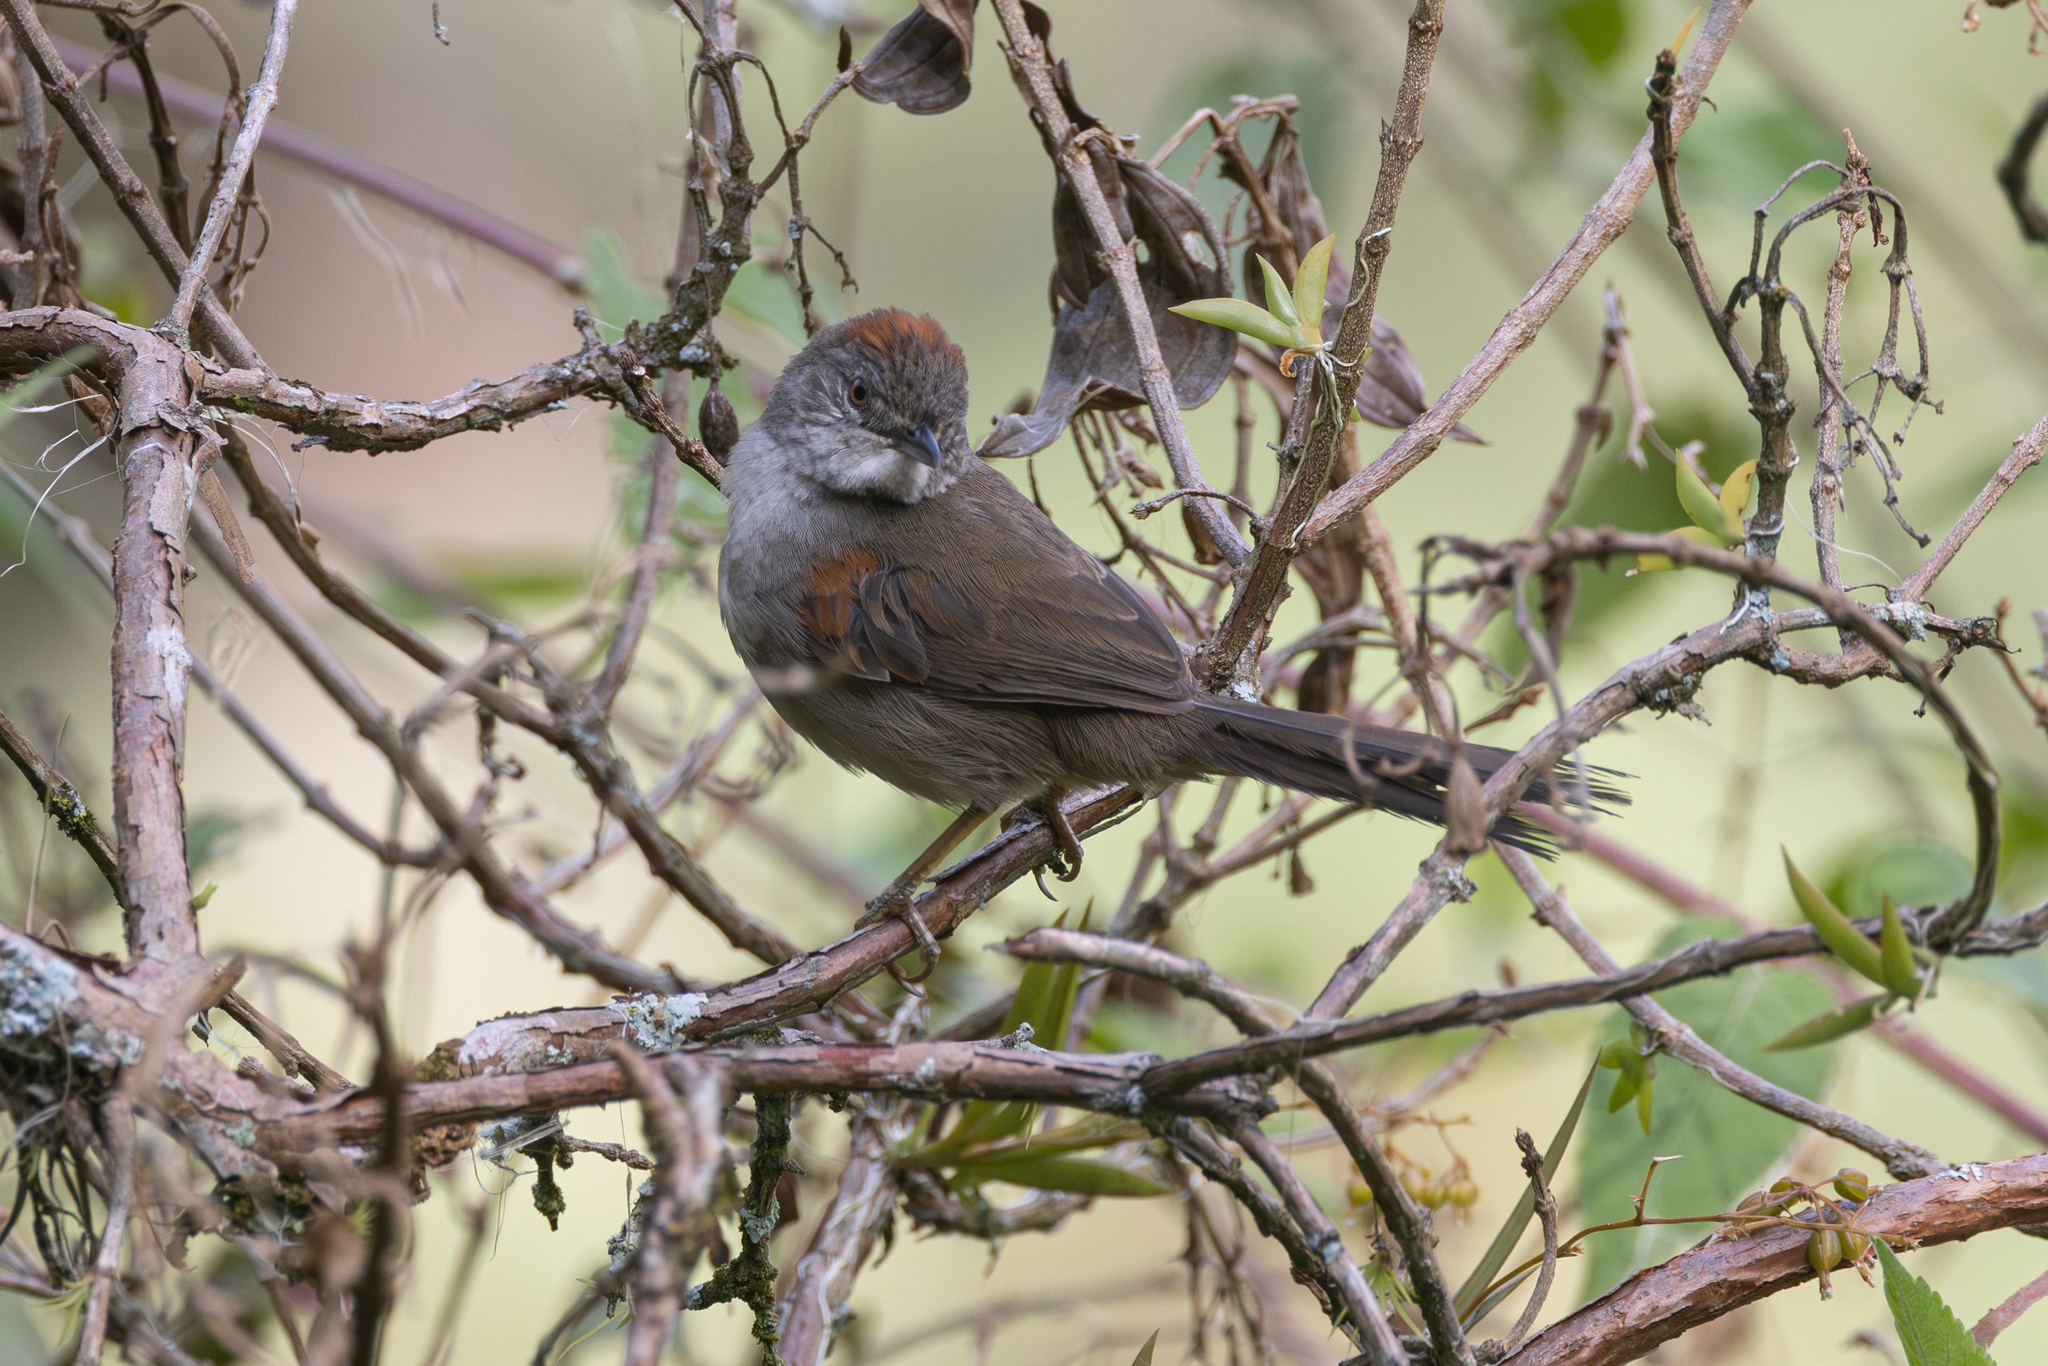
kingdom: Animalia
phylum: Chordata
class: Aves
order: Passeriformes
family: Furnariidae
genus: Synallaxis
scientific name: Synallaxis albescens
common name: Pale-breasted spinetail
